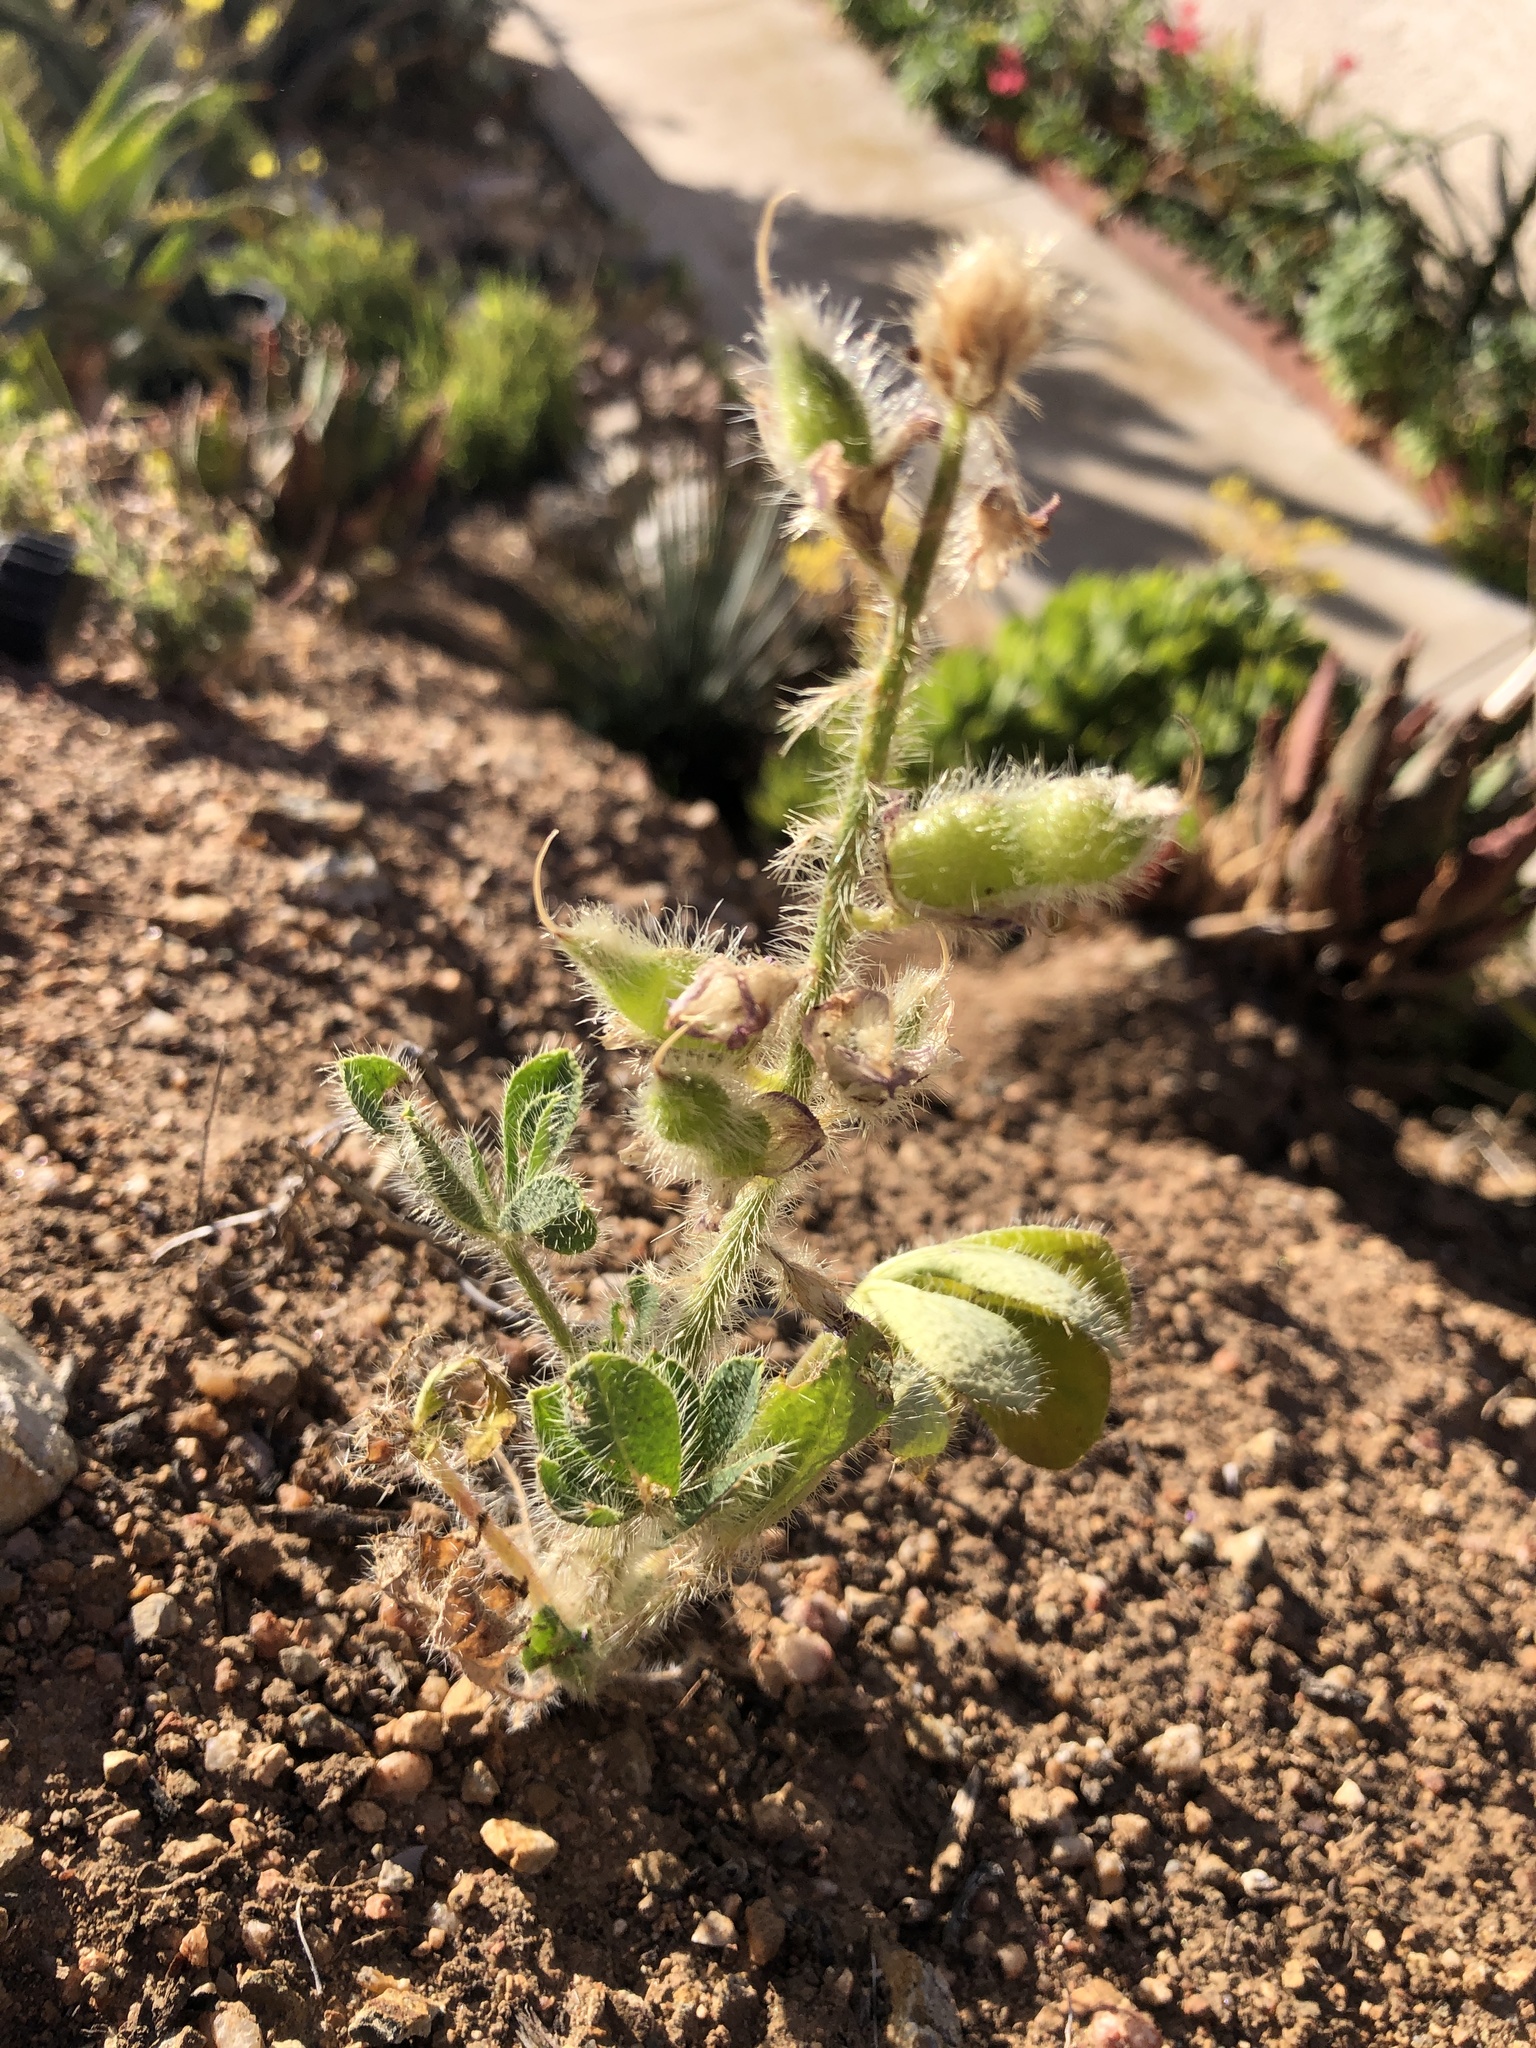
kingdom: Plantae
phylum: Tracheophyta
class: Magnoliopsida
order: Fabales
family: Fabaceae
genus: Lupinus
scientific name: Lupinus hirsutissimus
